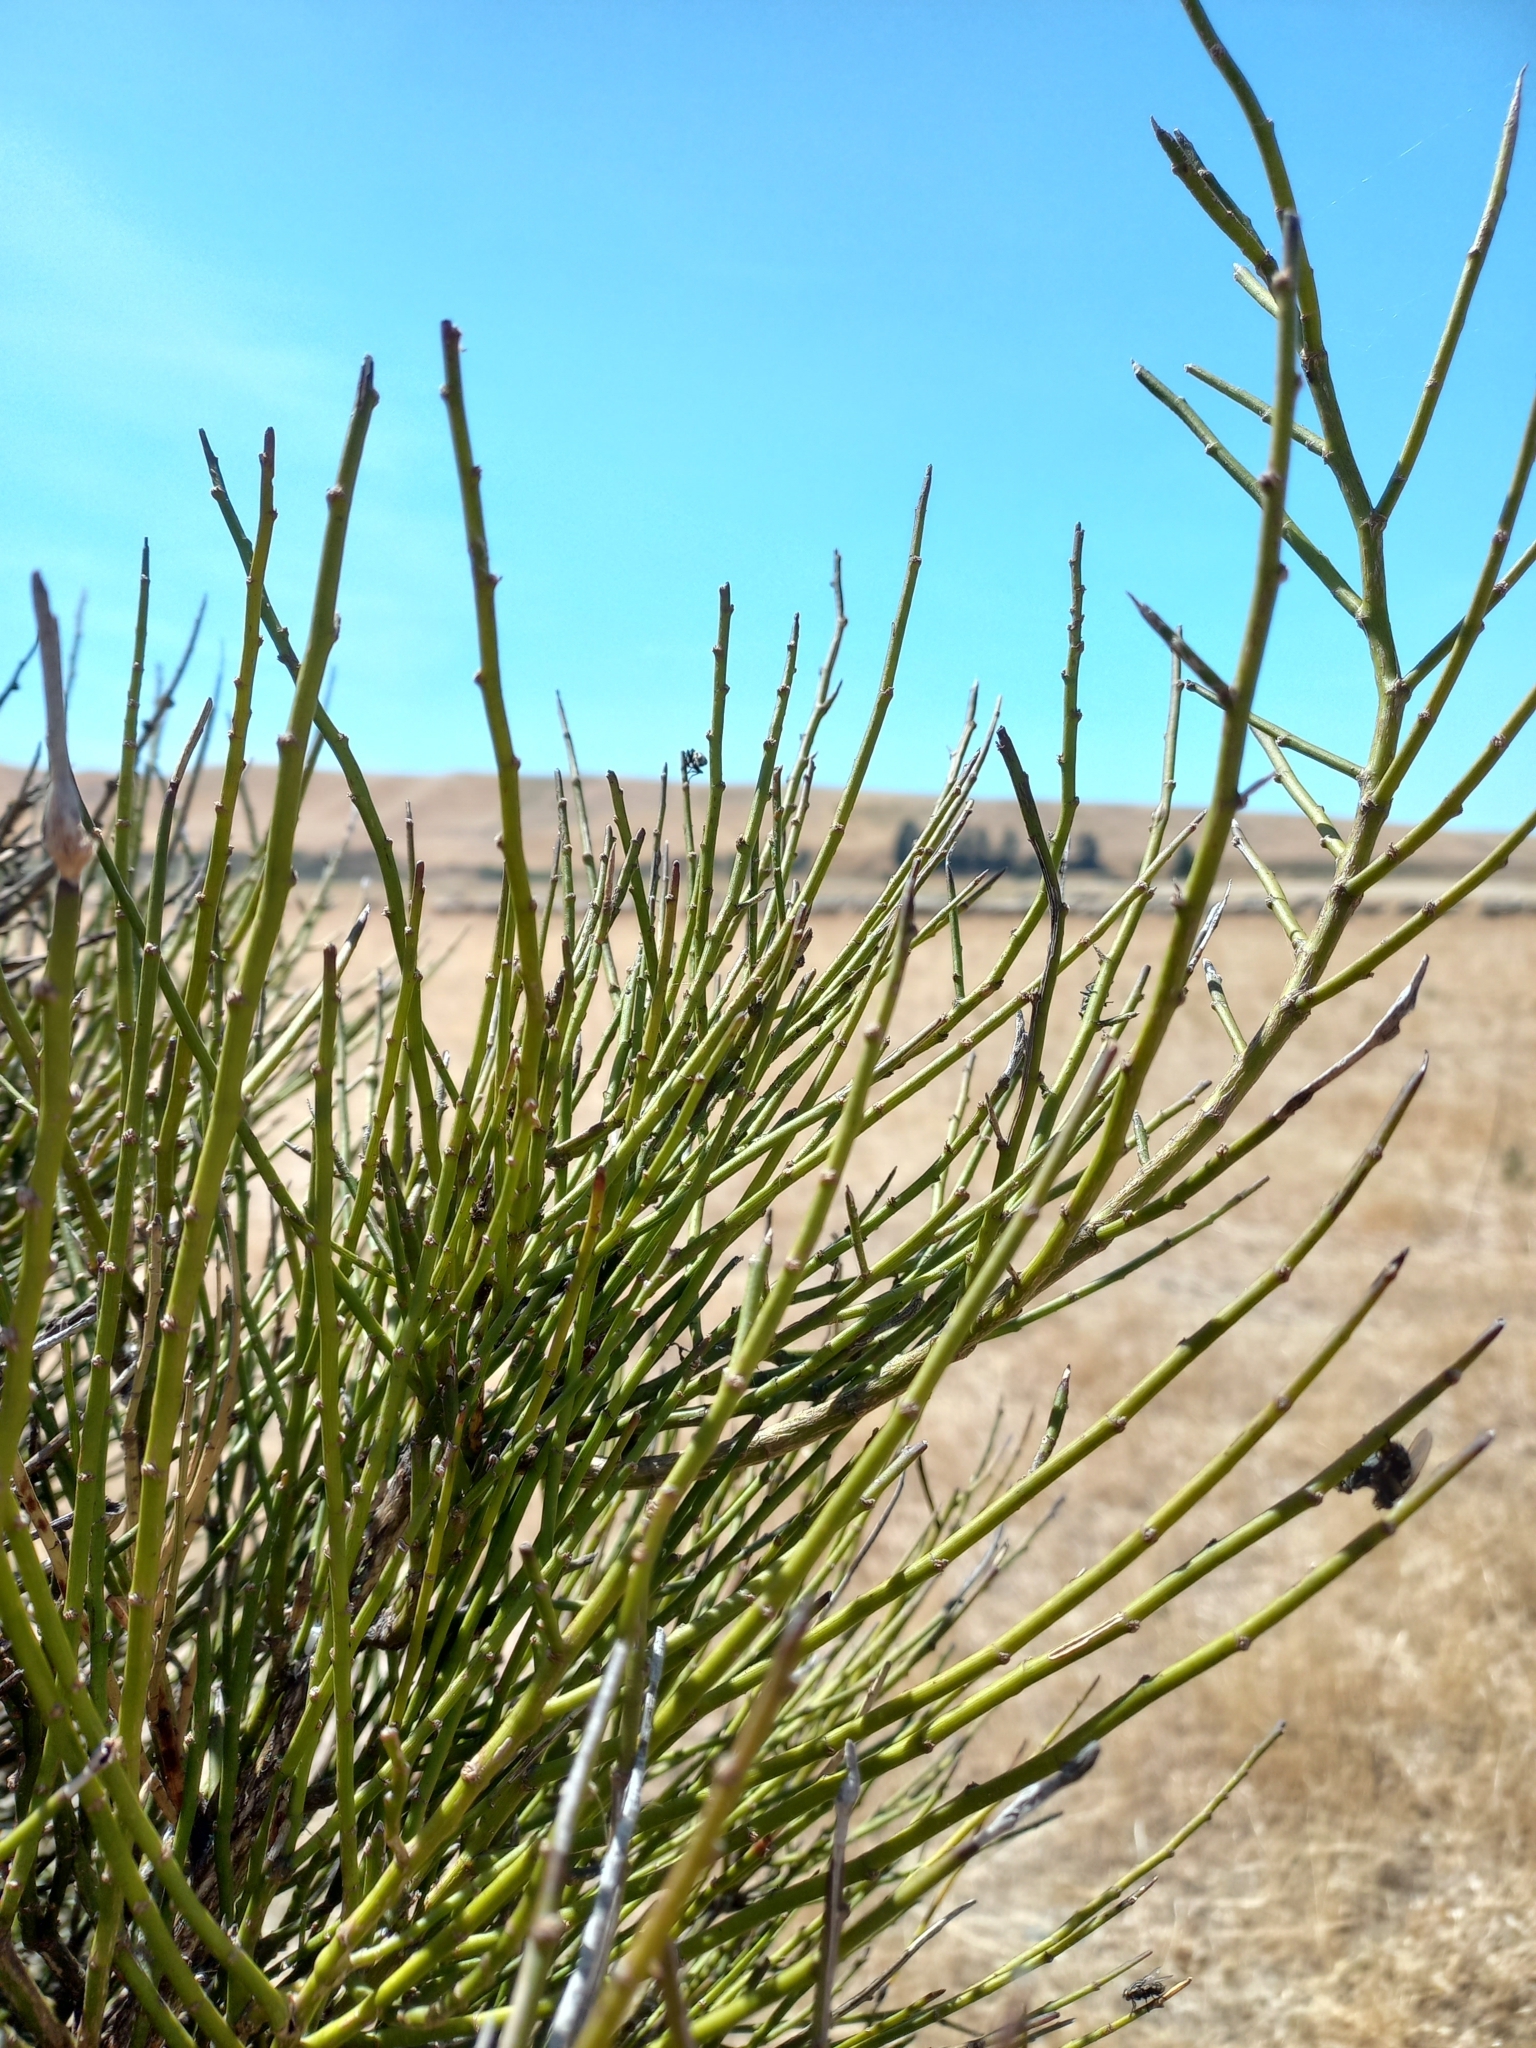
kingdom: Plantae
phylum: Tracheophyta
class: Magnoliopsida
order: Fabales
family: Fabaceae
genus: Carmichaelia
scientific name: Carmichaelia australis
